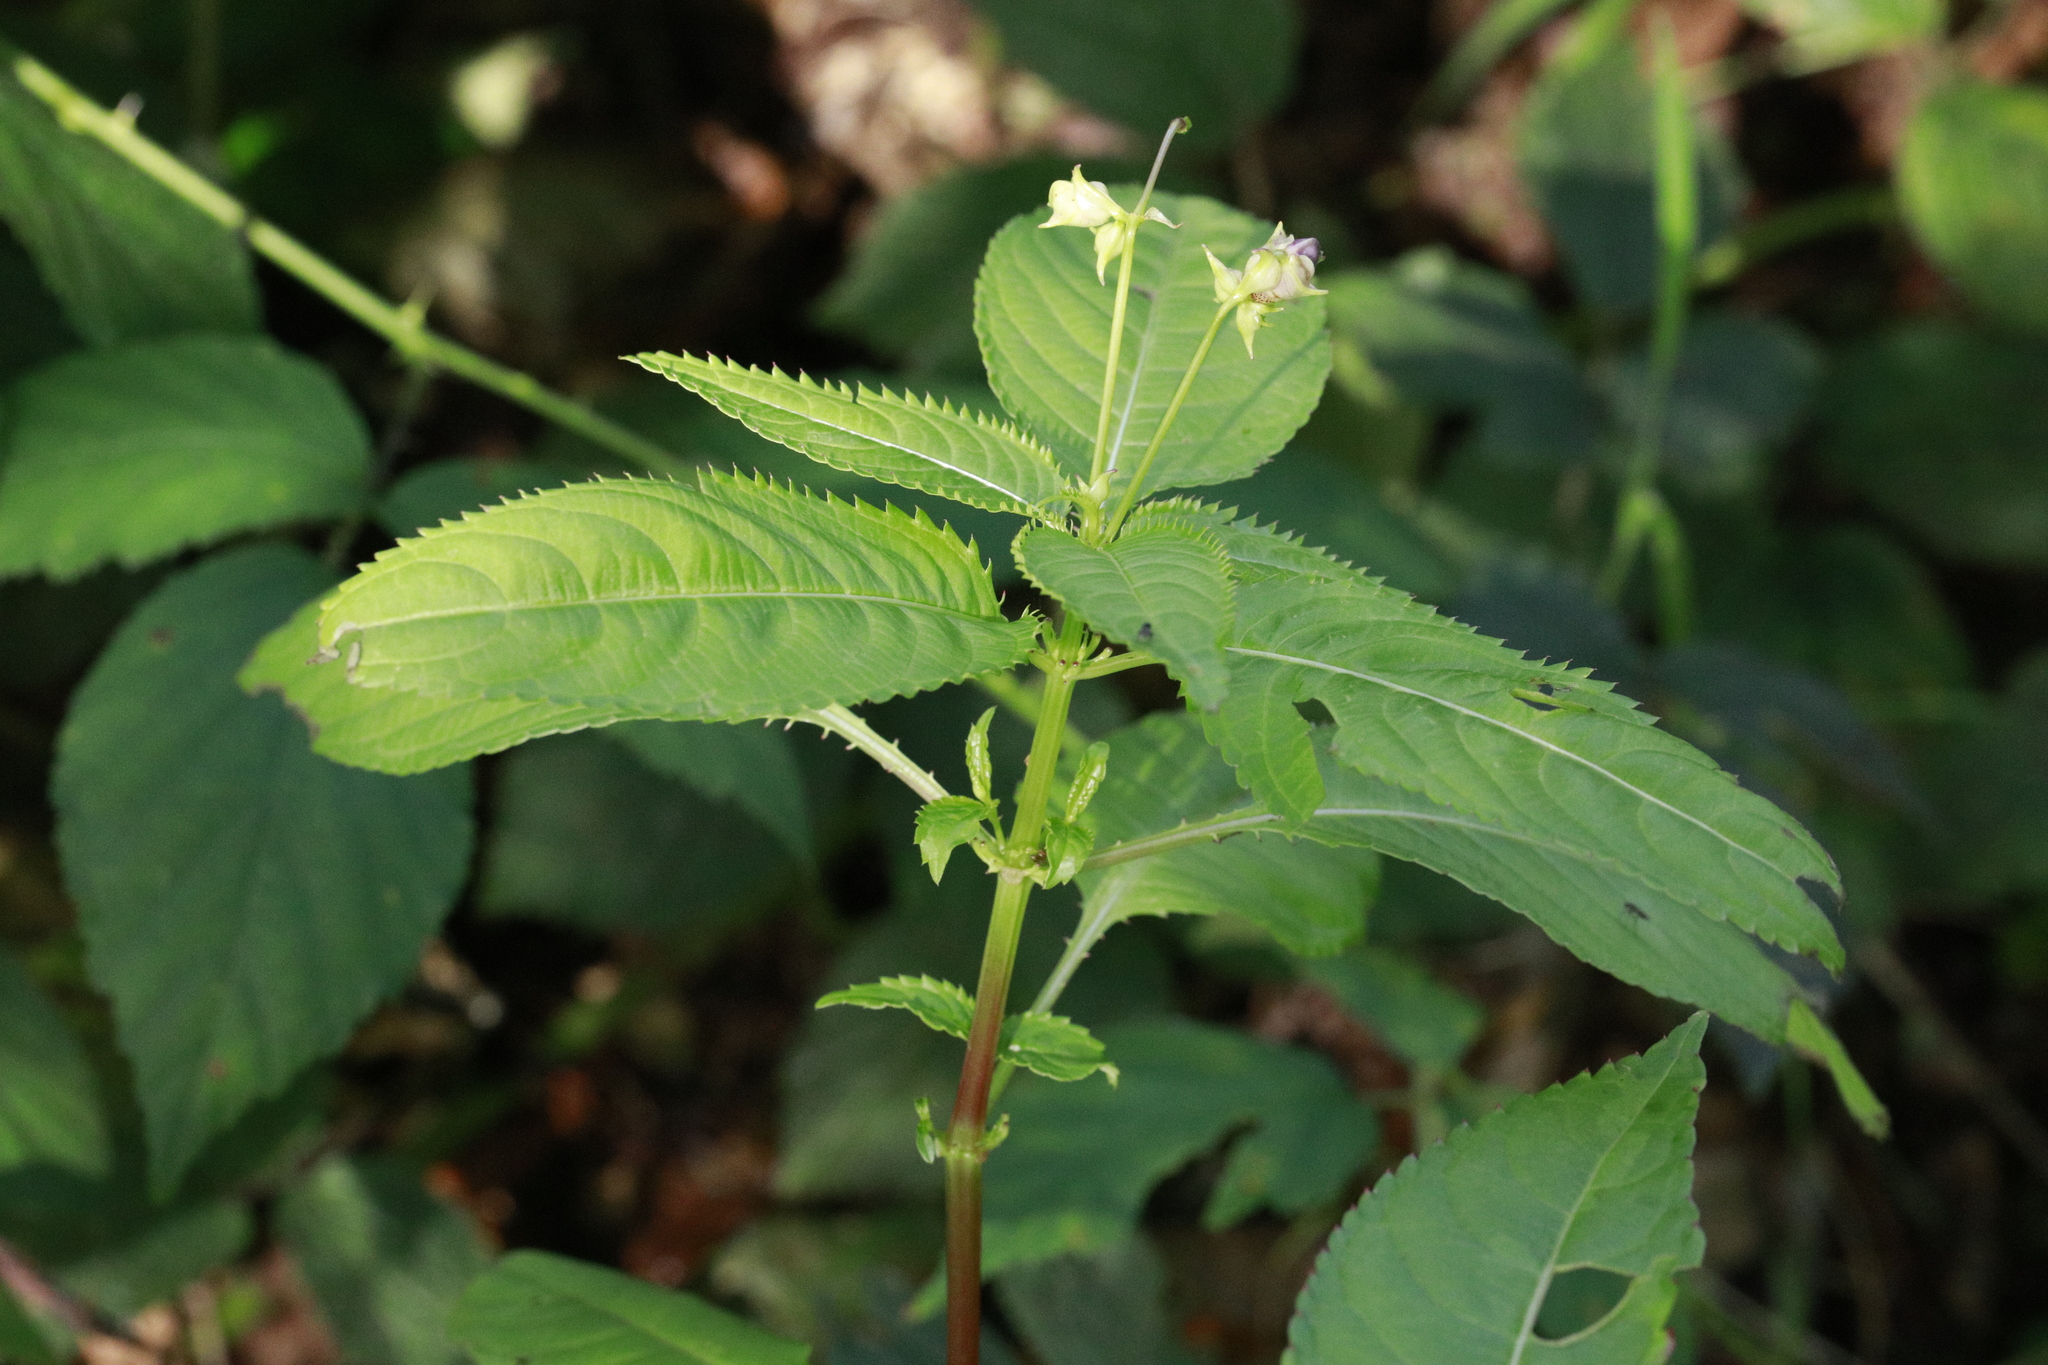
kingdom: Plantae
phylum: Tracheophyta
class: Magnoliopsida
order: Ericales
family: Balsaminaceae
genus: Impatiens
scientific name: Impatiens glandulifera
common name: Himalayan balsam
